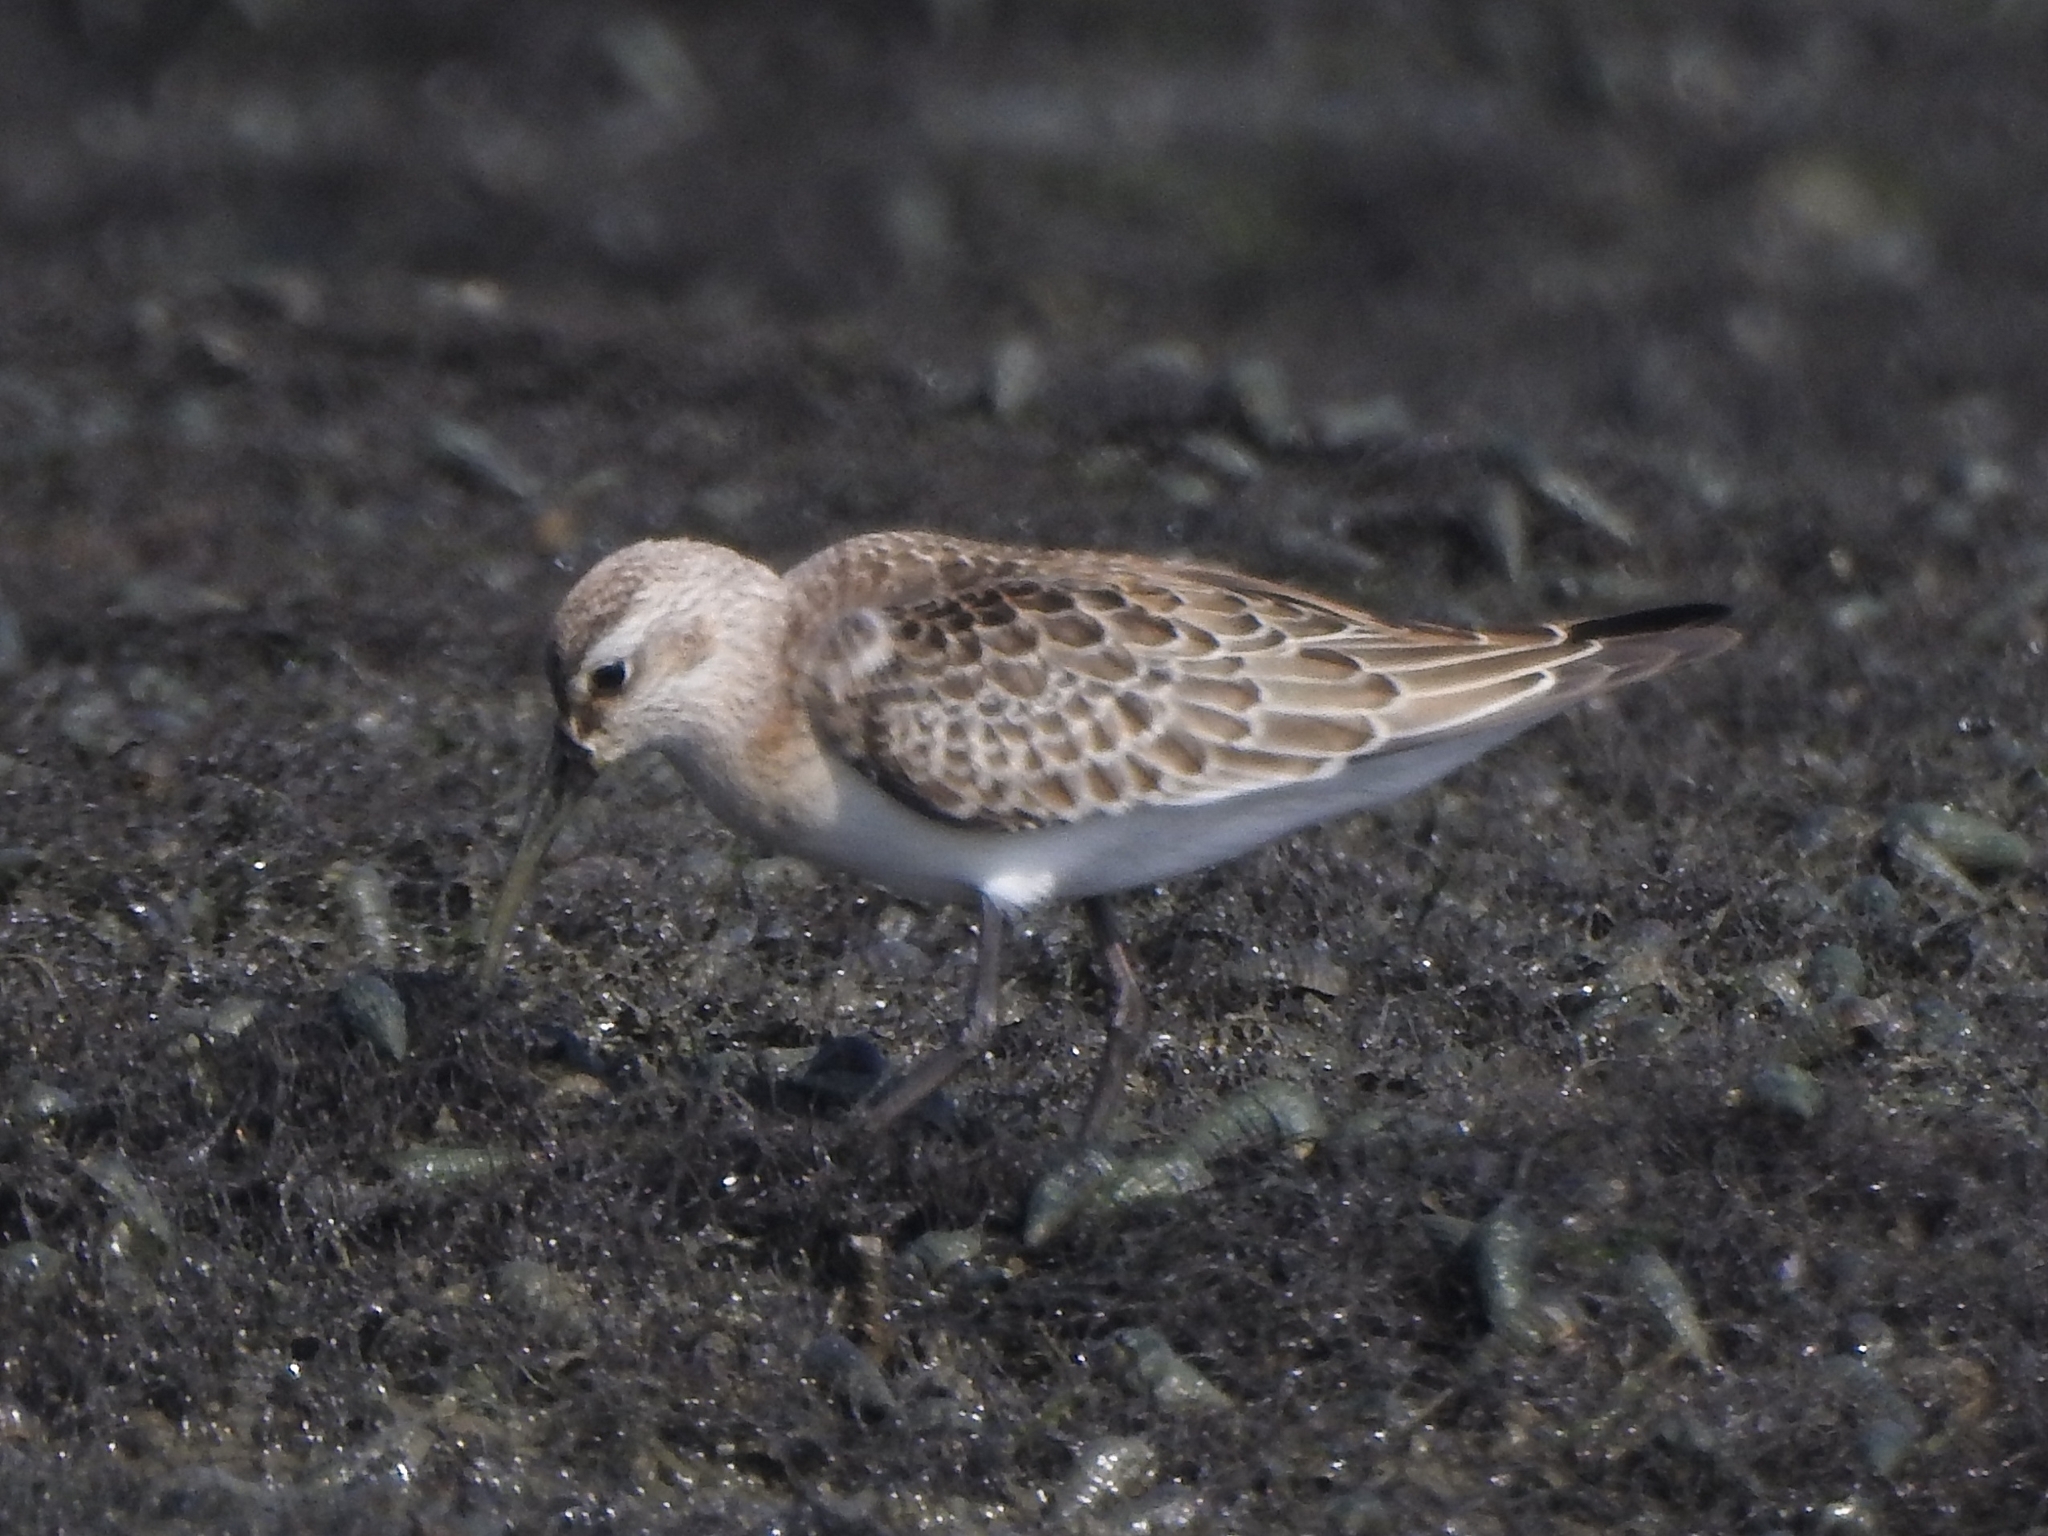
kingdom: Animalia
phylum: Chordata
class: Aves
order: Charadriiformes
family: Scolopacidae
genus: Calidris
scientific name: Calidris ferruginea
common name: Curlew sandpiper
